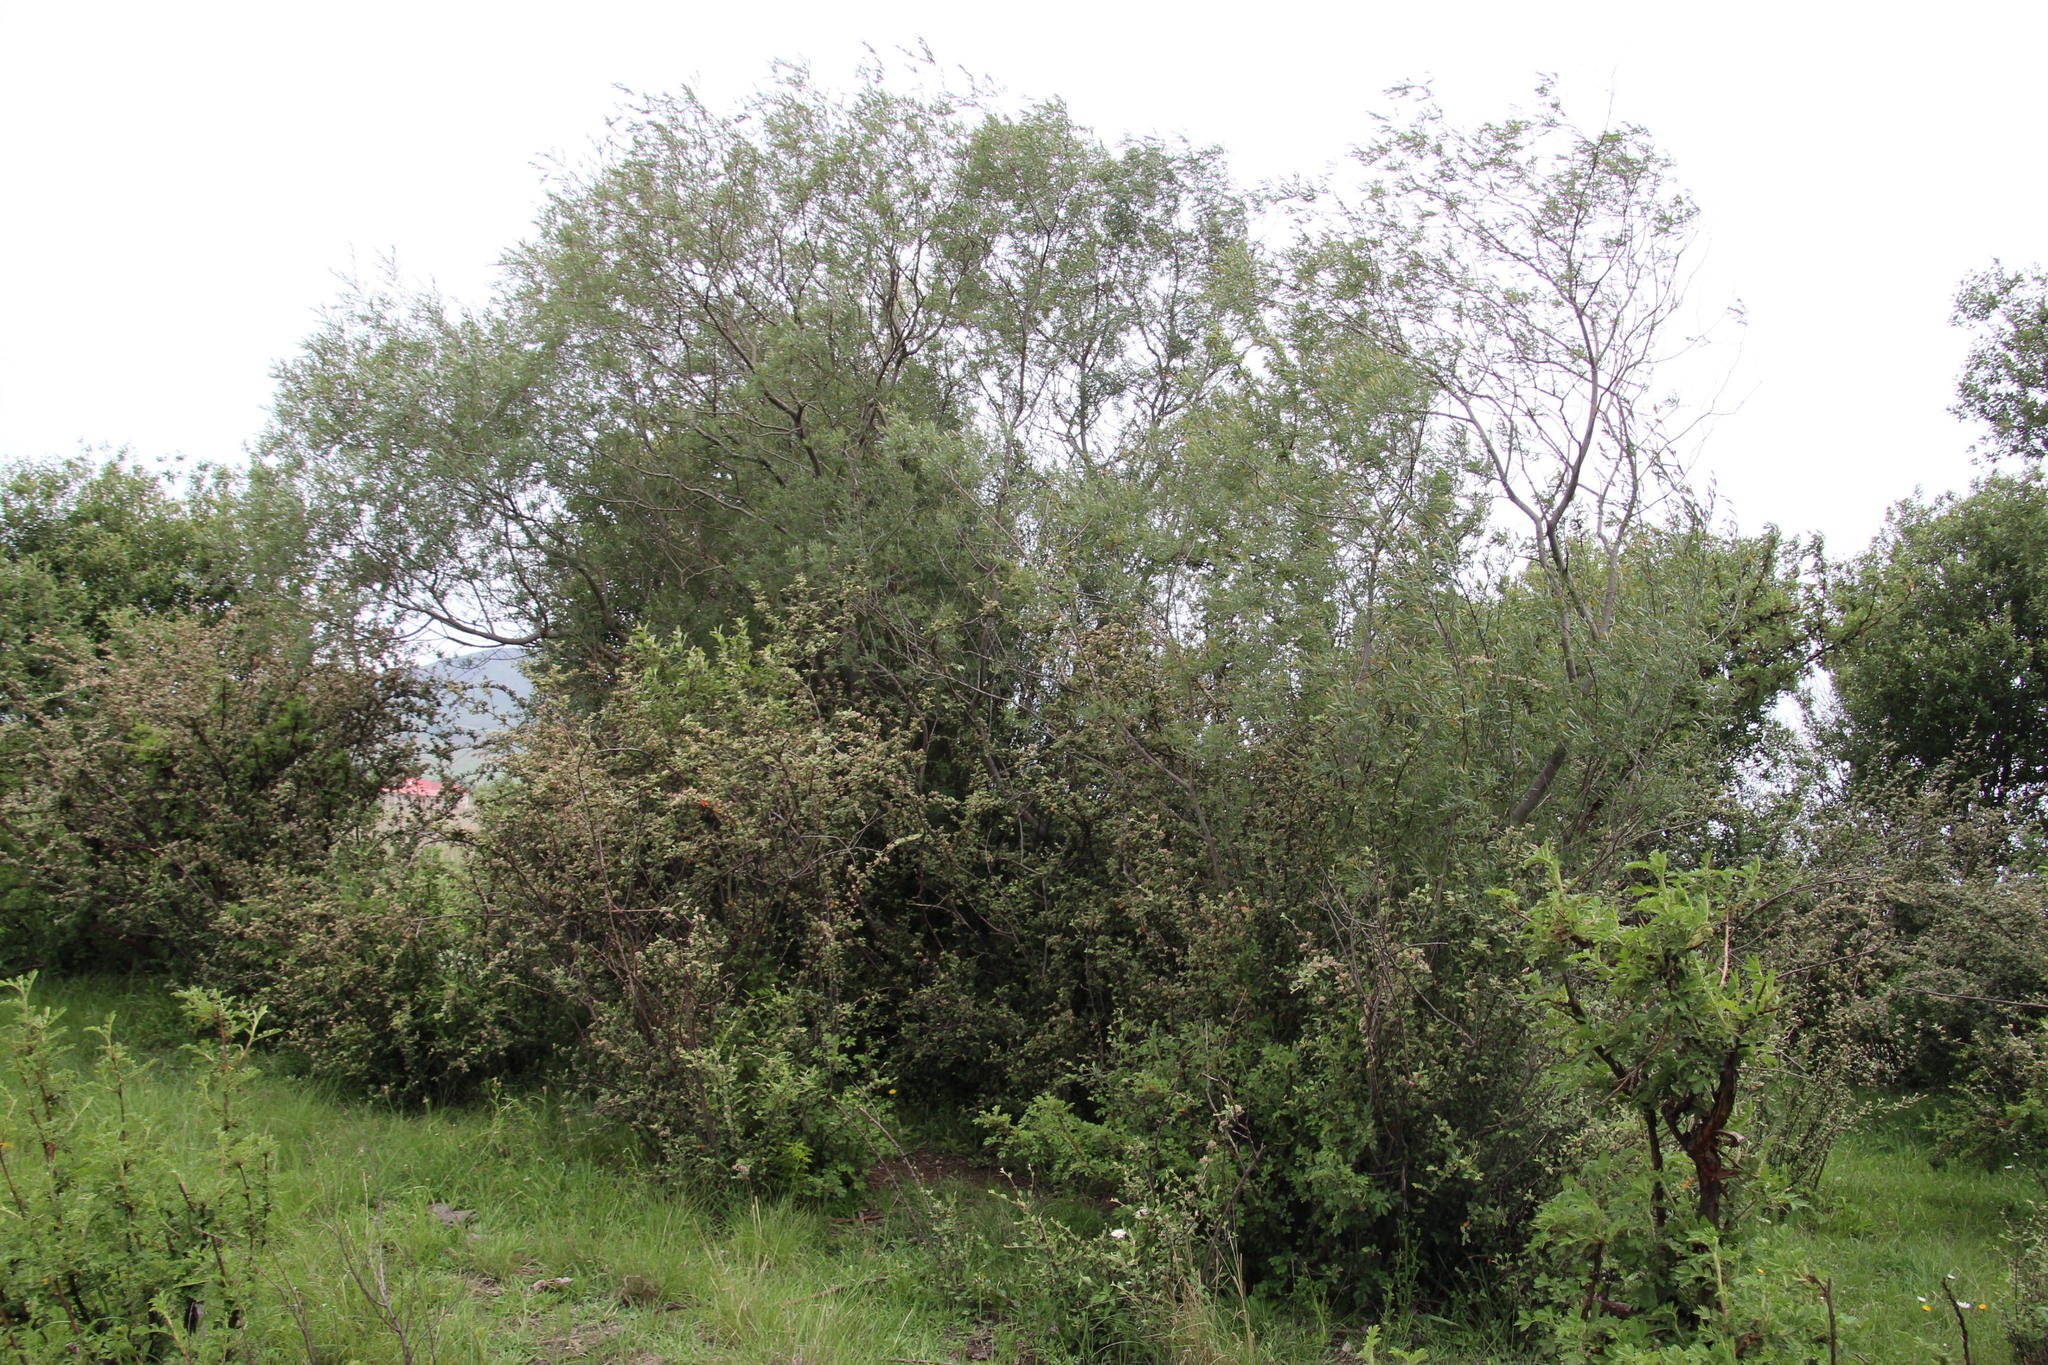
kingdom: Plantae
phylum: Tracheophyta
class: Magnoliopsida
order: Malpighiales
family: Salicaceae
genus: Salix
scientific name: Salix mucronata
